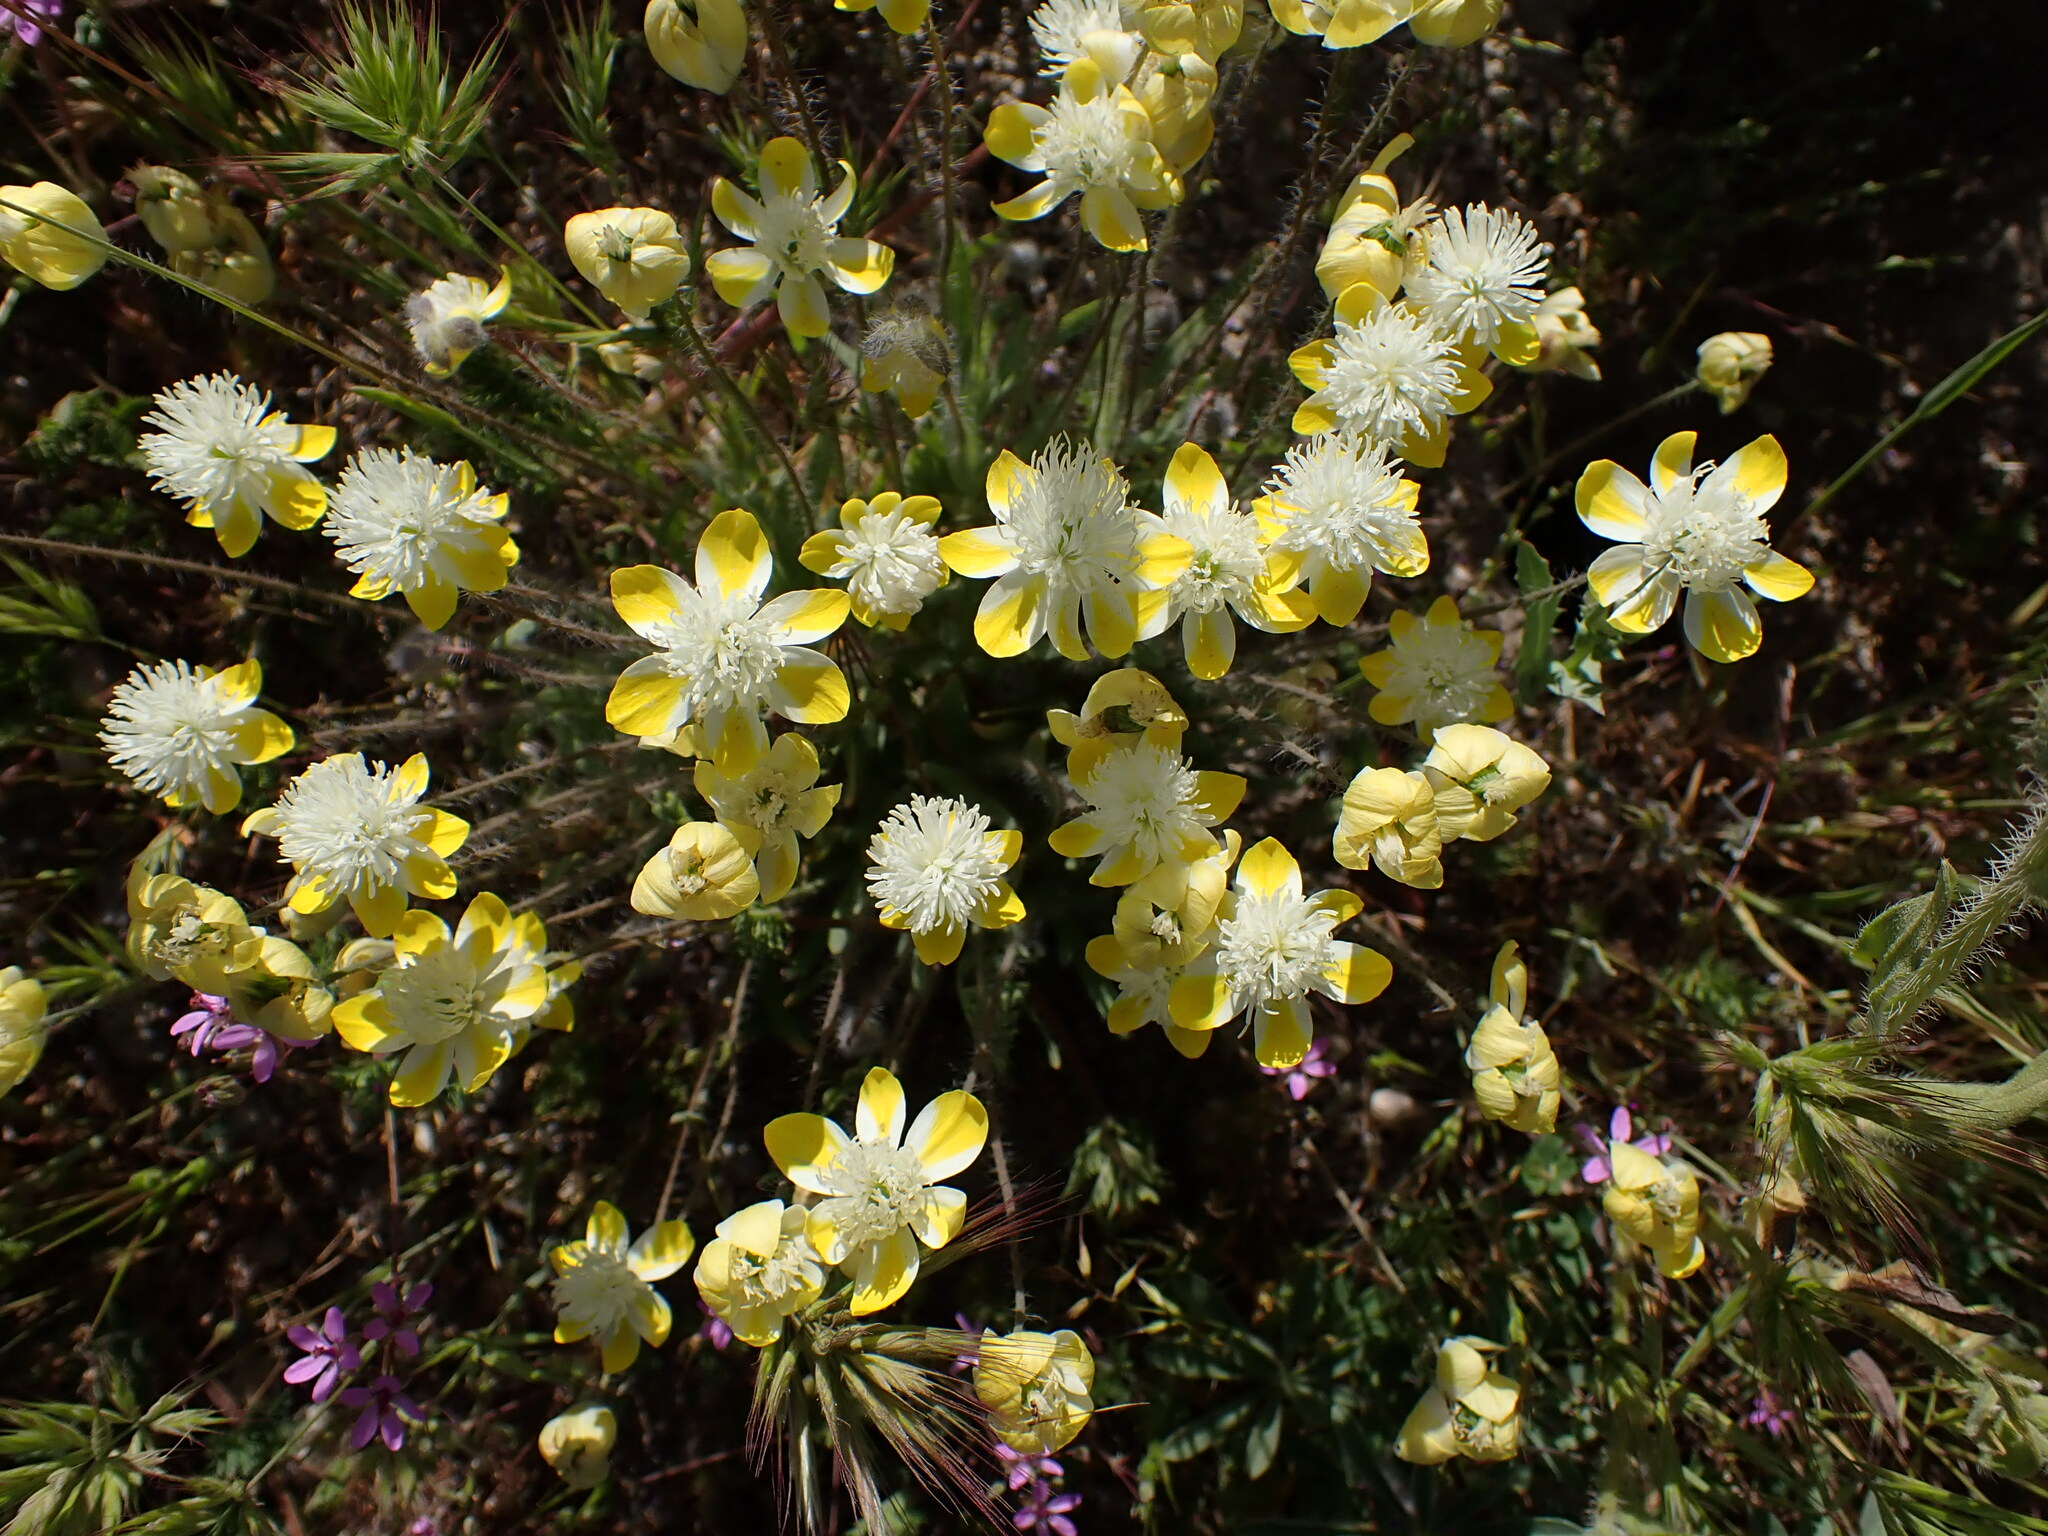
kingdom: Plantae
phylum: Tracheophyta
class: Magnoliopsida
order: Ranunculales
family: Papaveraceae
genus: Platystemon
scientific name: Platystemon californicus
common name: Cream-cups
